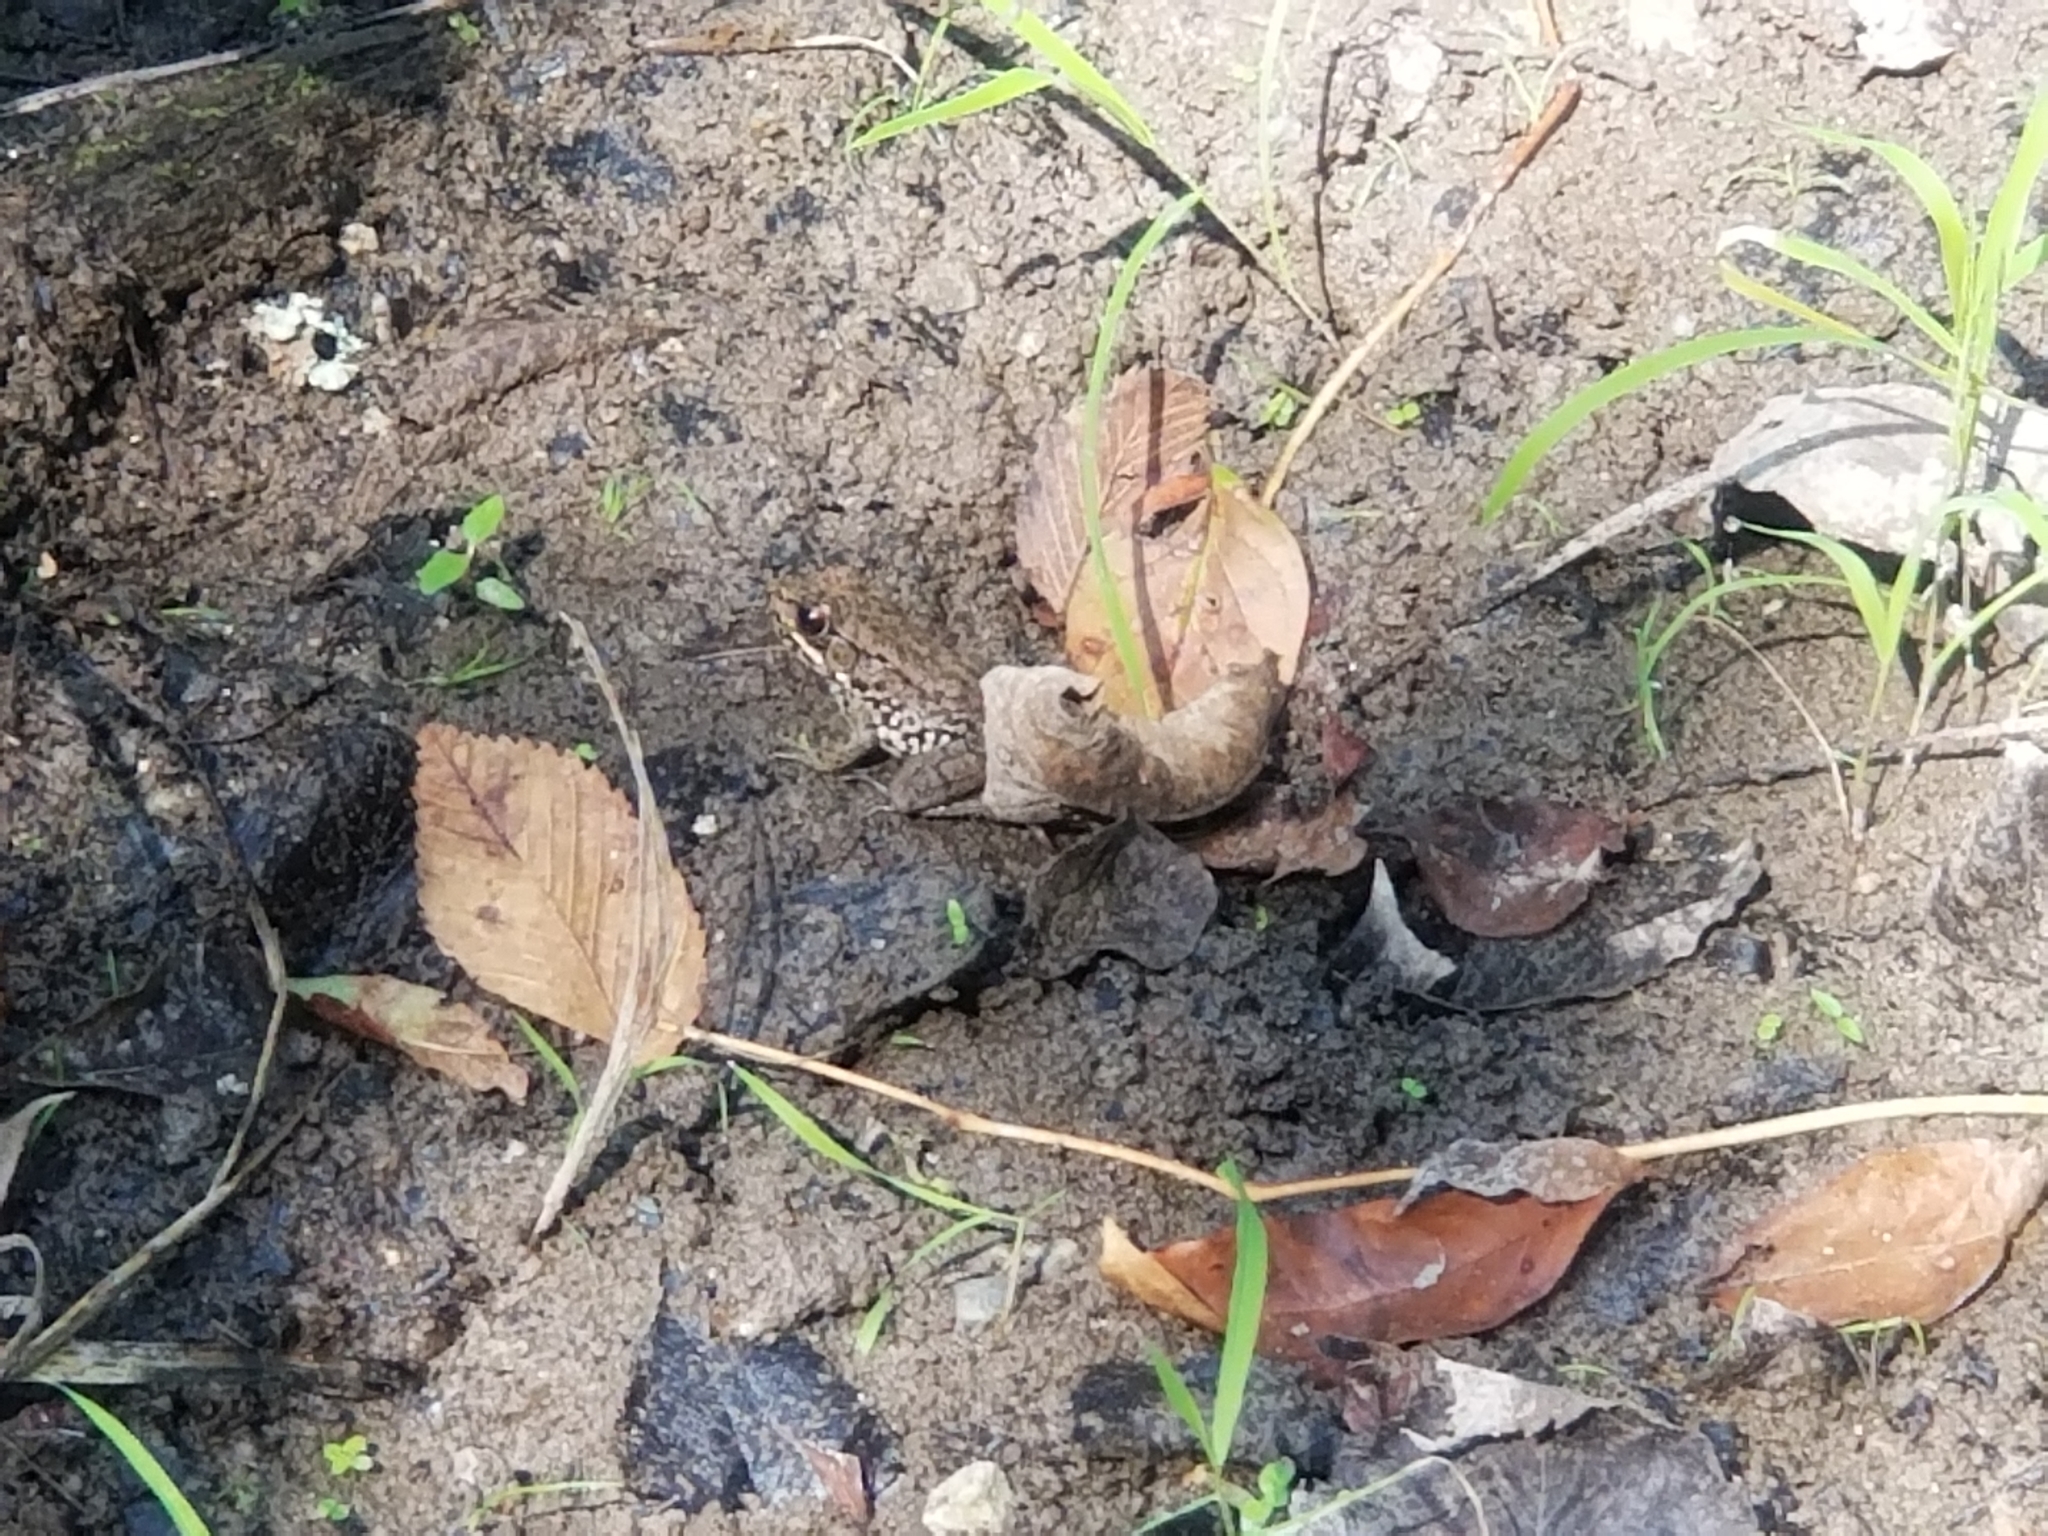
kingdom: Animalia
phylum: Chordata
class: Amphibia
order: Anura
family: Ranidae
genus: Lithobates
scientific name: Lithobates clamitans
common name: Green frog
